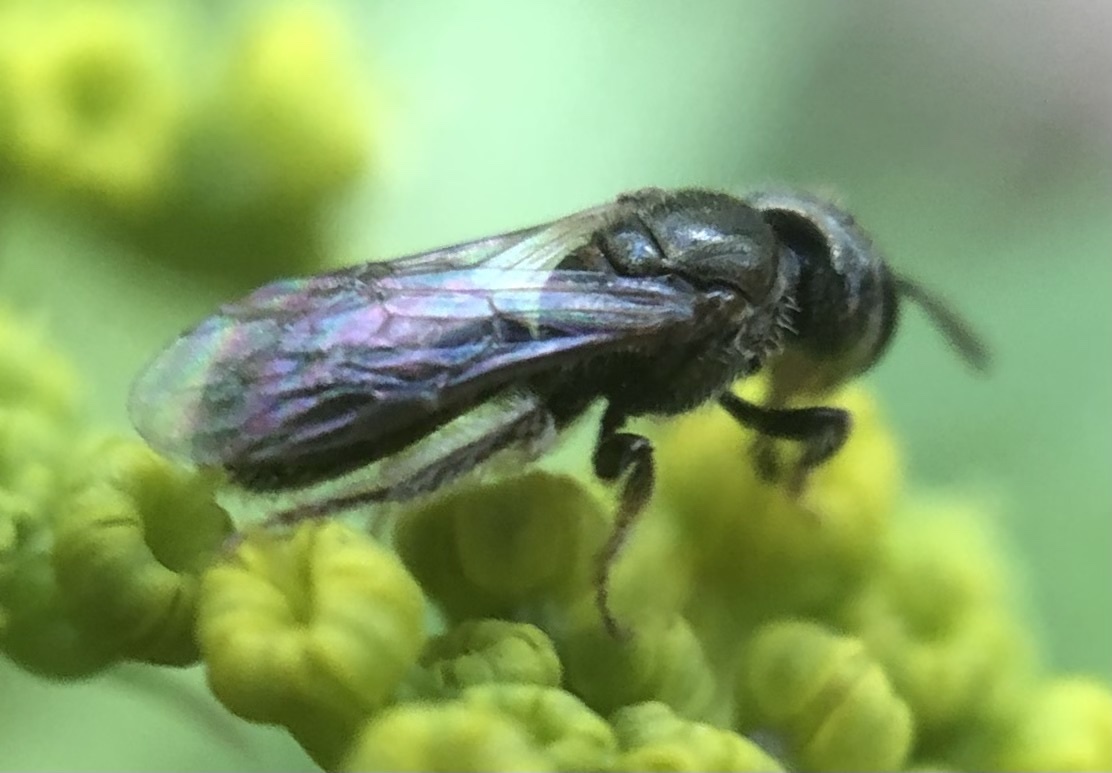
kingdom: Animalia
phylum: Arthropoda
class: Insecta
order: Hymenoptera
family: Halictidae
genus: Lasioglossum
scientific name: Lasioglossum imitatum
